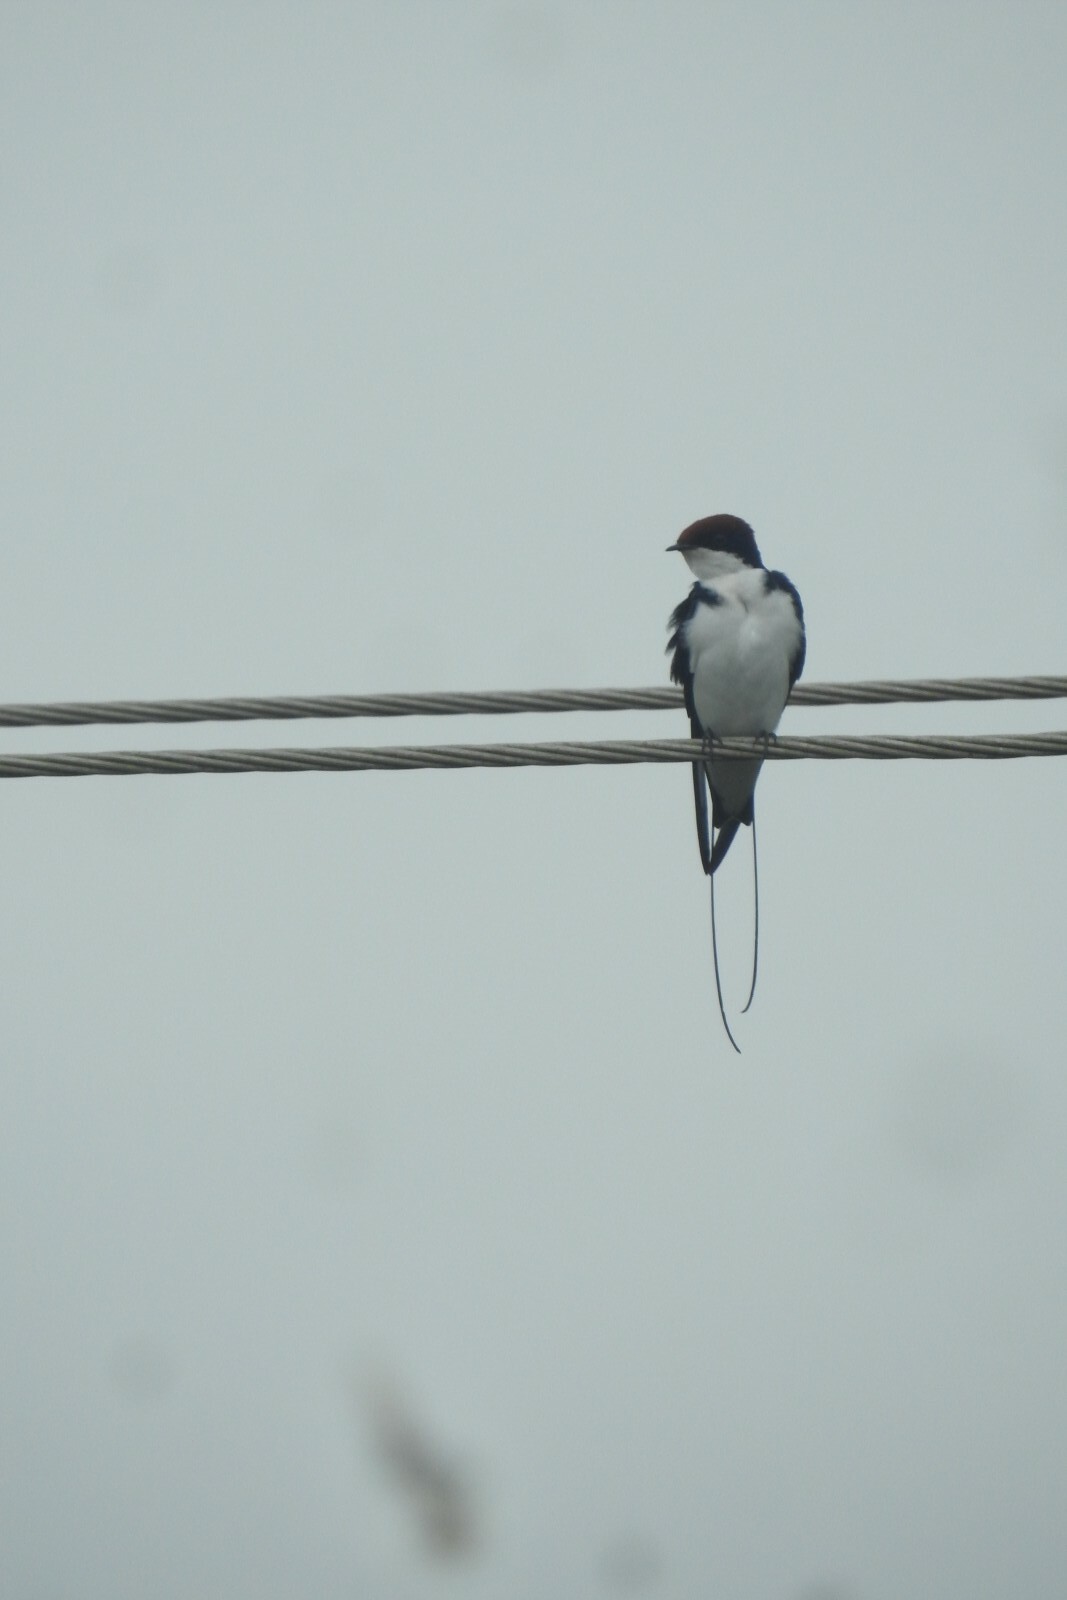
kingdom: Animalia
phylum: Chordata
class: Aves
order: Passeriformes
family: Hirundinidae
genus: Hirundo
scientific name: Hirundo smithii
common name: Wire-tailed swallow
